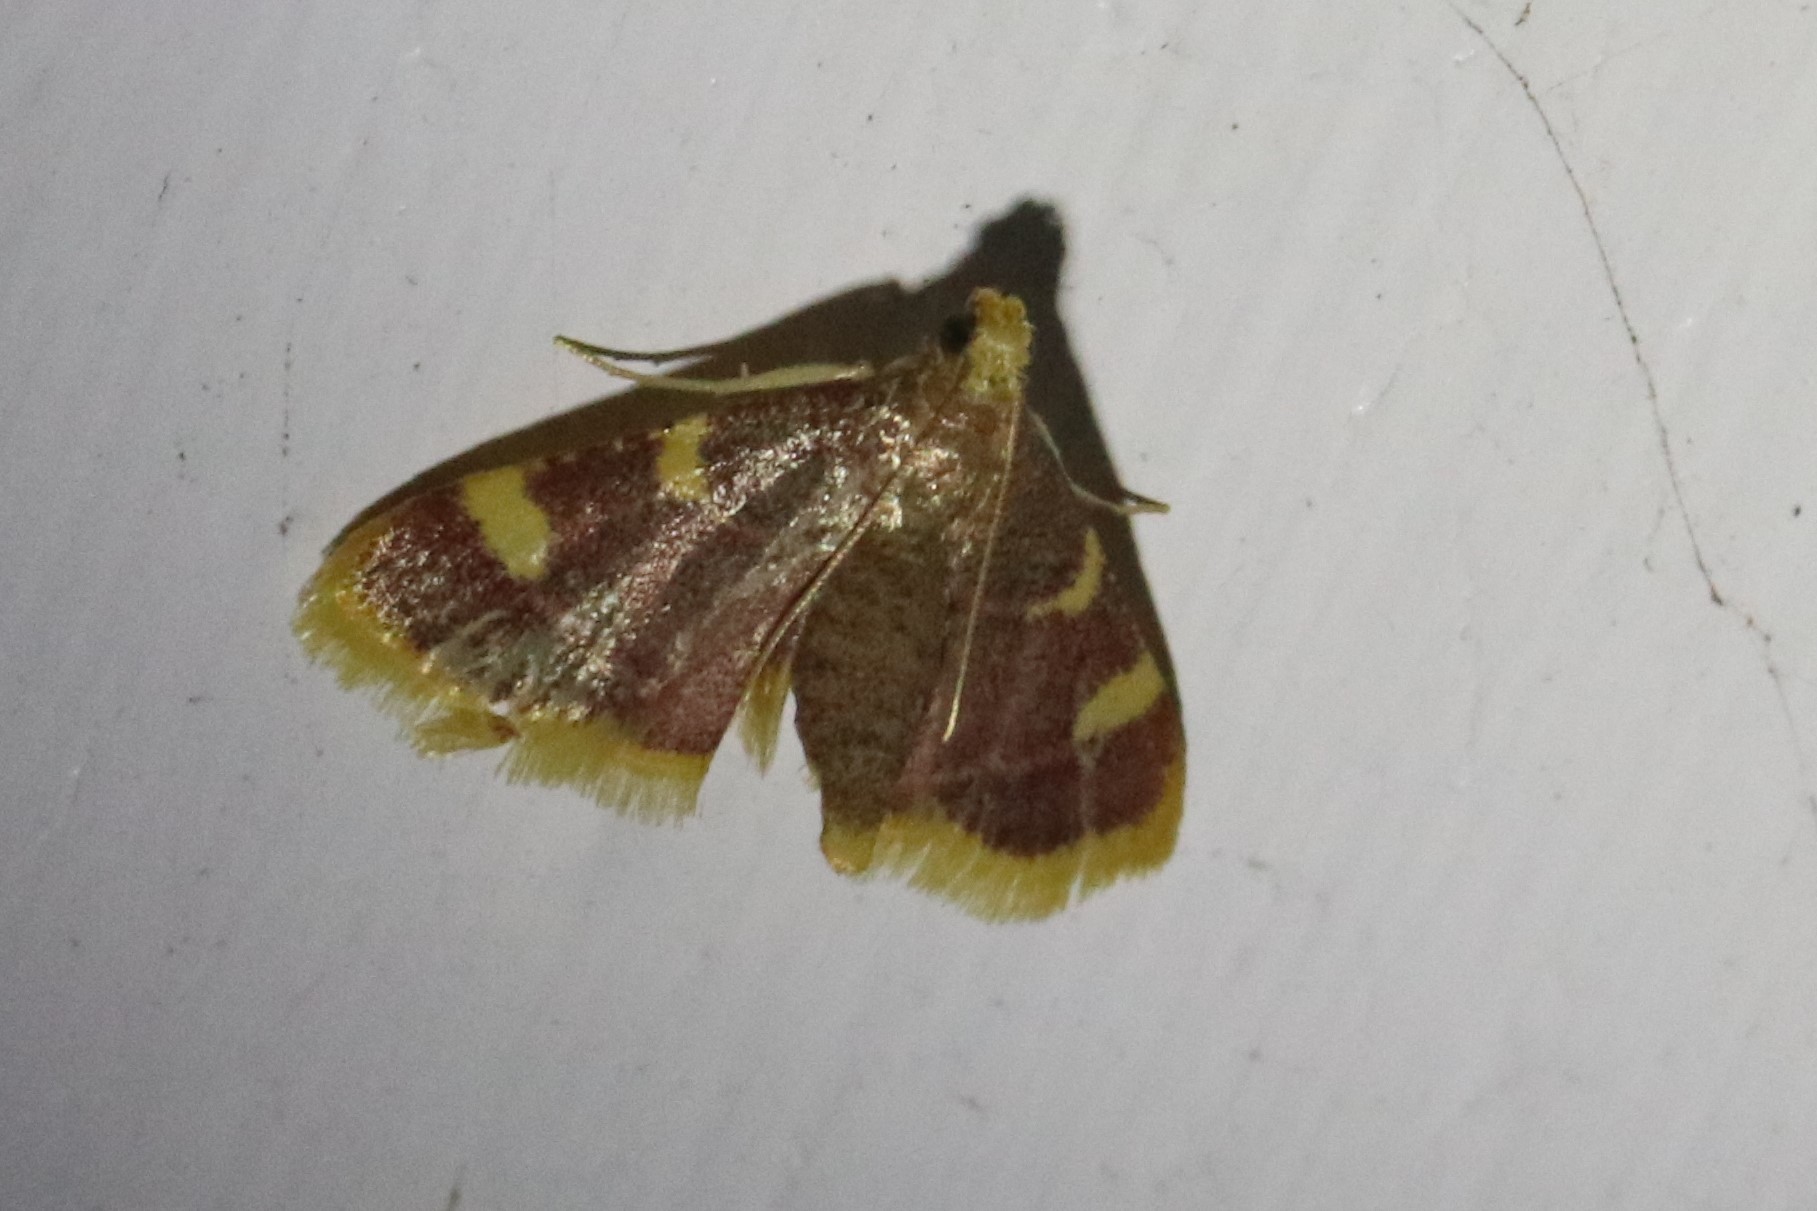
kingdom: Animalia
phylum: Arthropoda
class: Insecta
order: Lepidoptera
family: Pyralidae
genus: Hypsopygia
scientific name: Hypsopygia costalis
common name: Gold triangle
